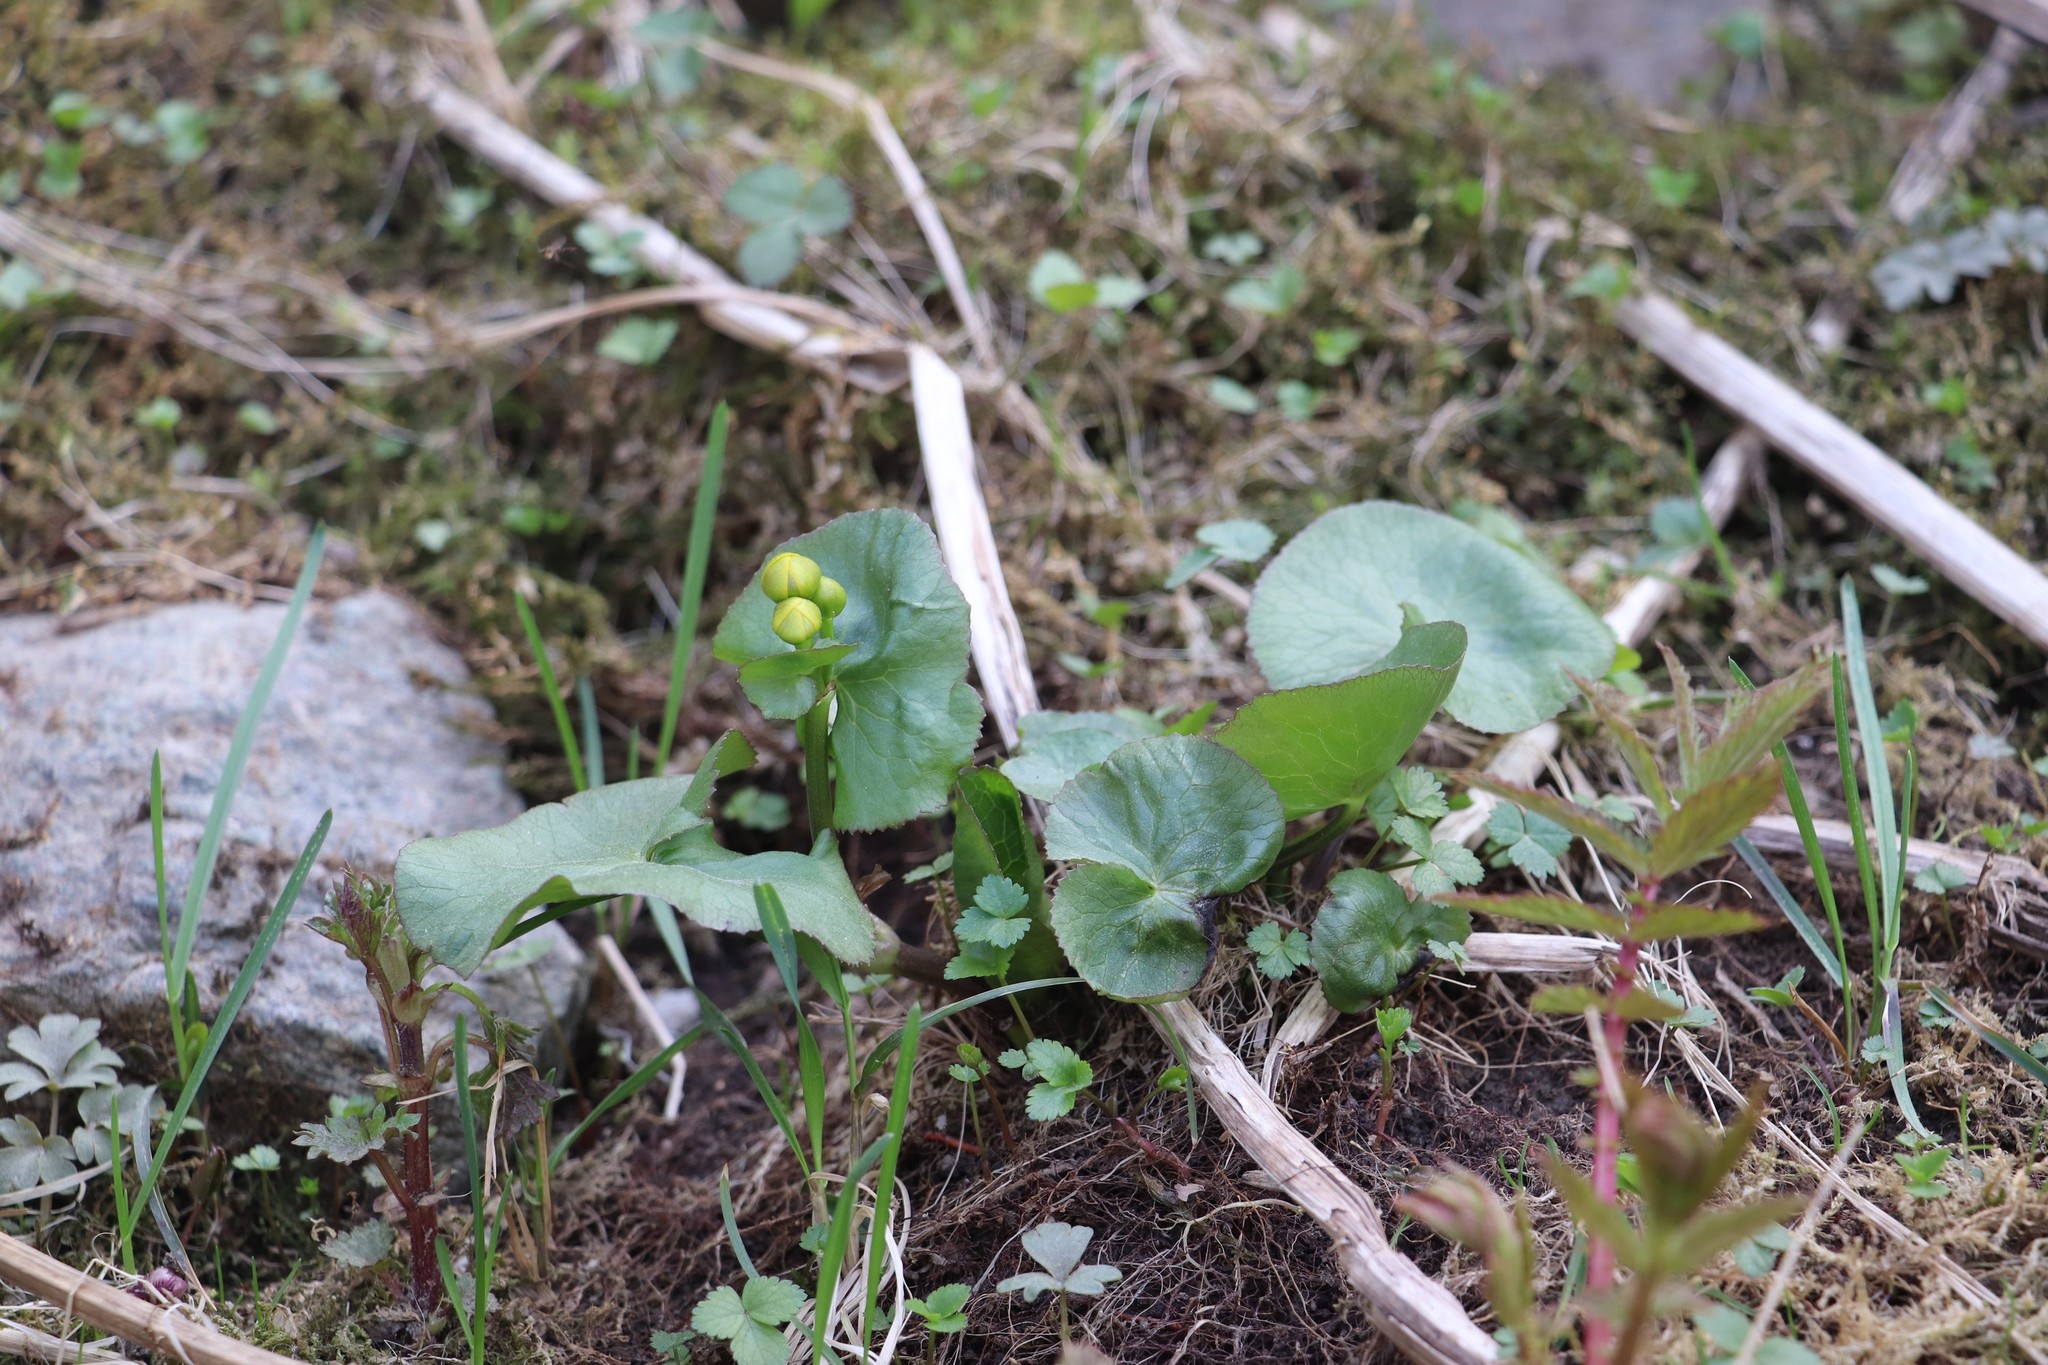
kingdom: Plantae
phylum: Tracheophyta
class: Magnoliopsida
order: Ranunculales
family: Ranunculaceae
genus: Caltha
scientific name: Caltha palustris
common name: Marsh marigold
